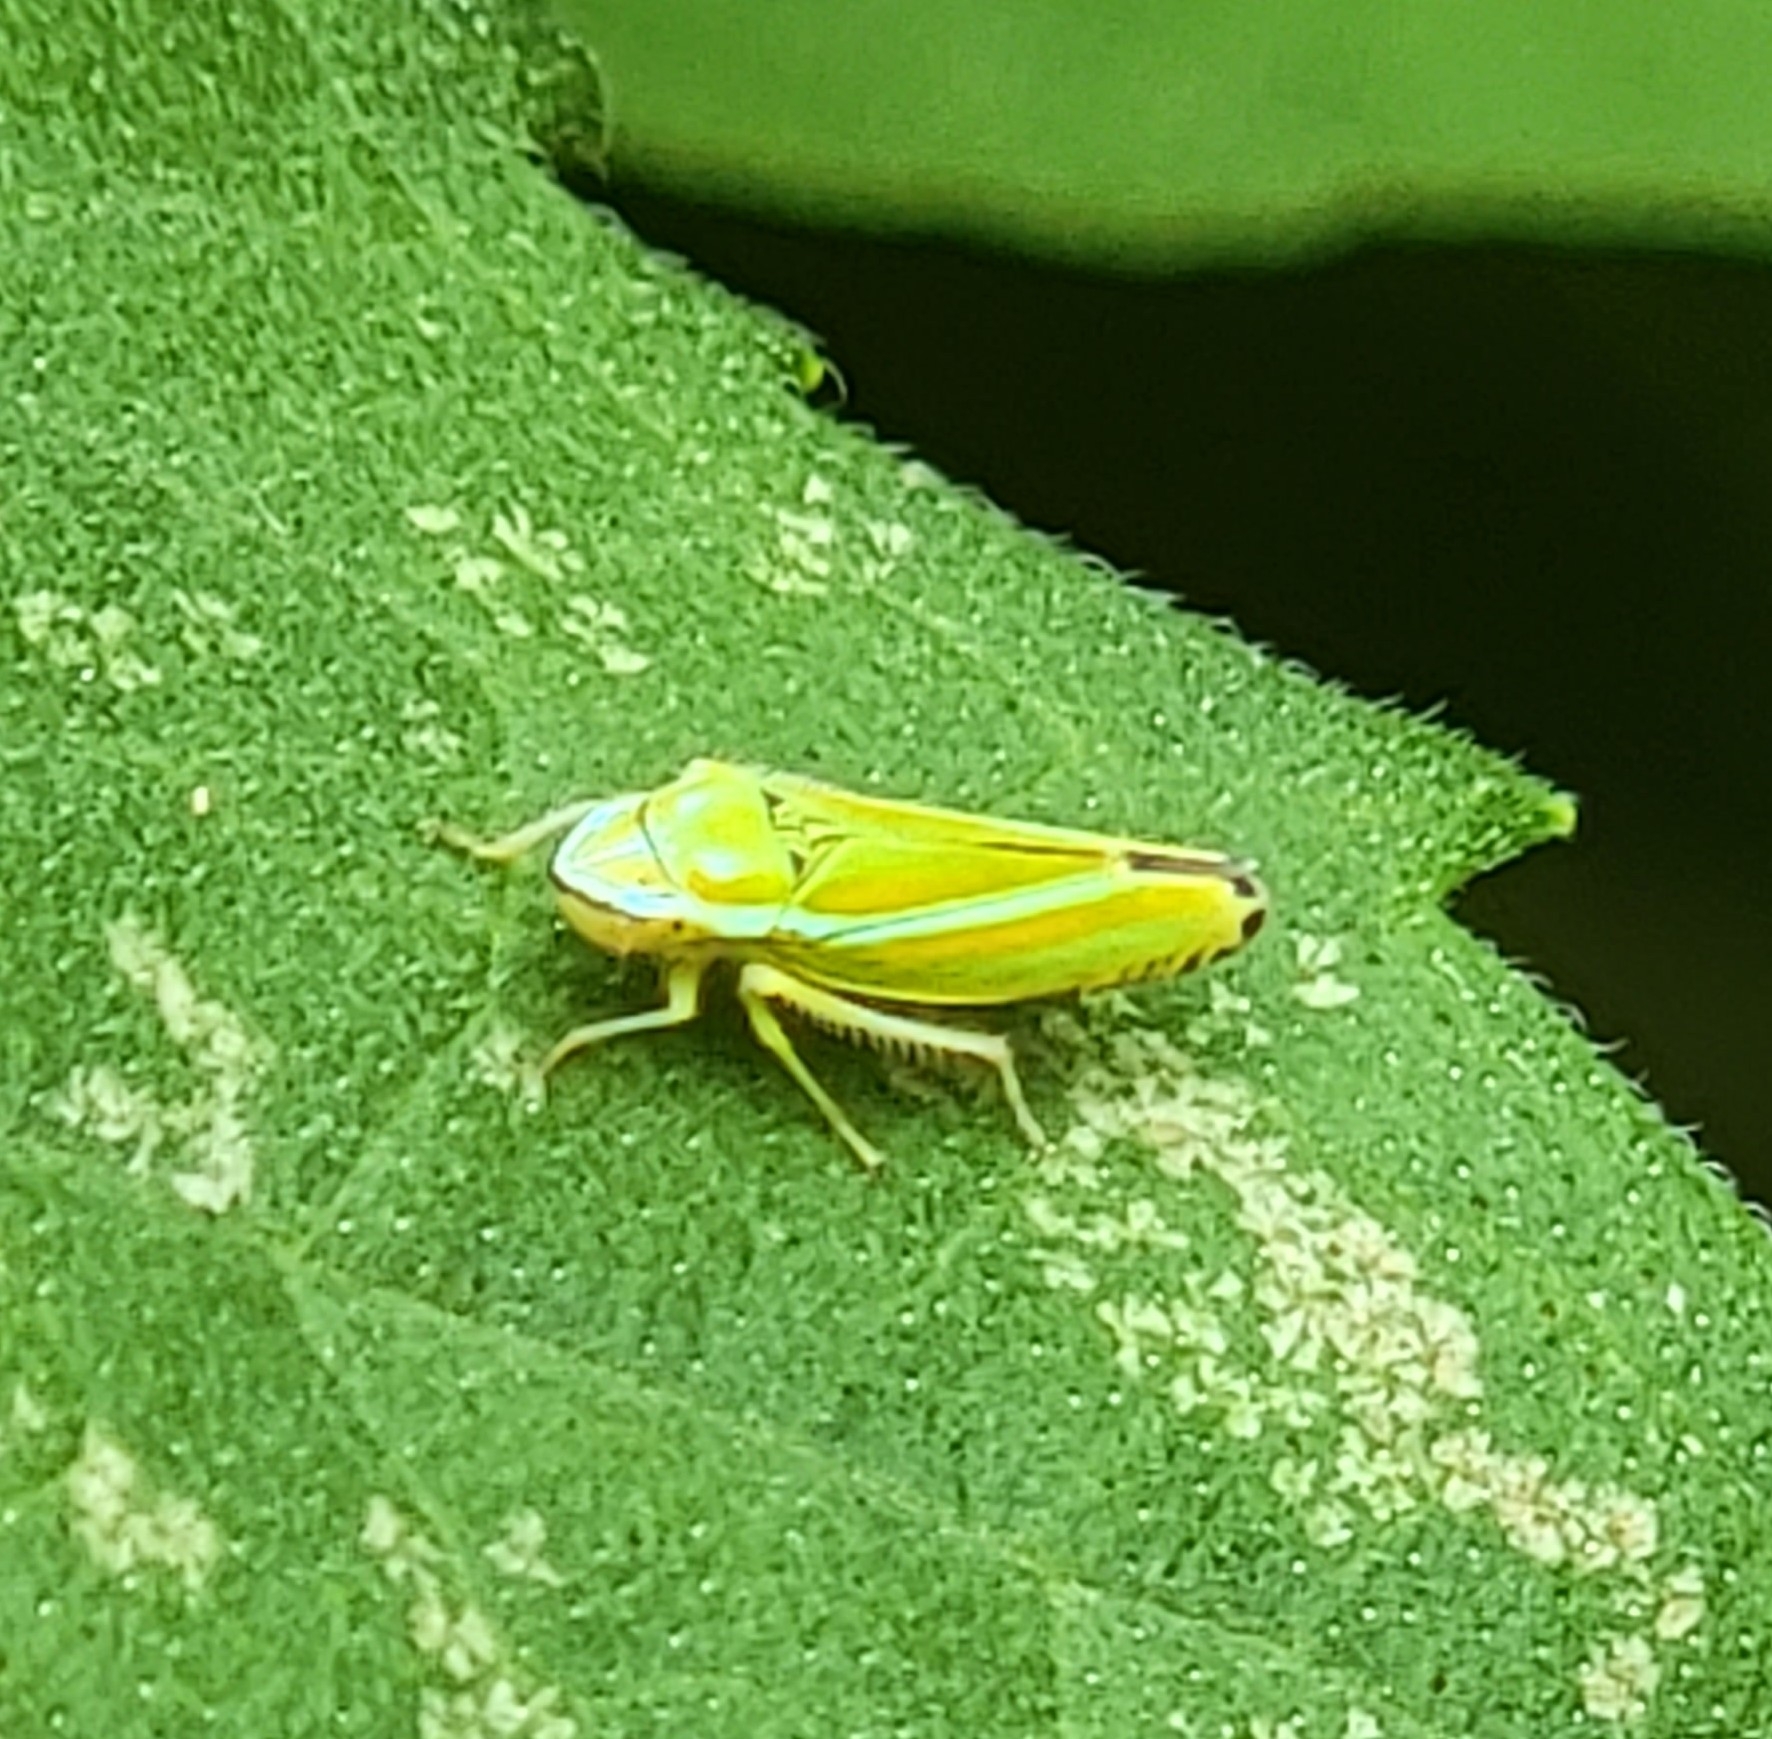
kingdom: Animalia
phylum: Arthropoda
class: Insecta
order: Hemiptera
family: Cicadellidae
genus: Graphocephala
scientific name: Graphocephala versuta
